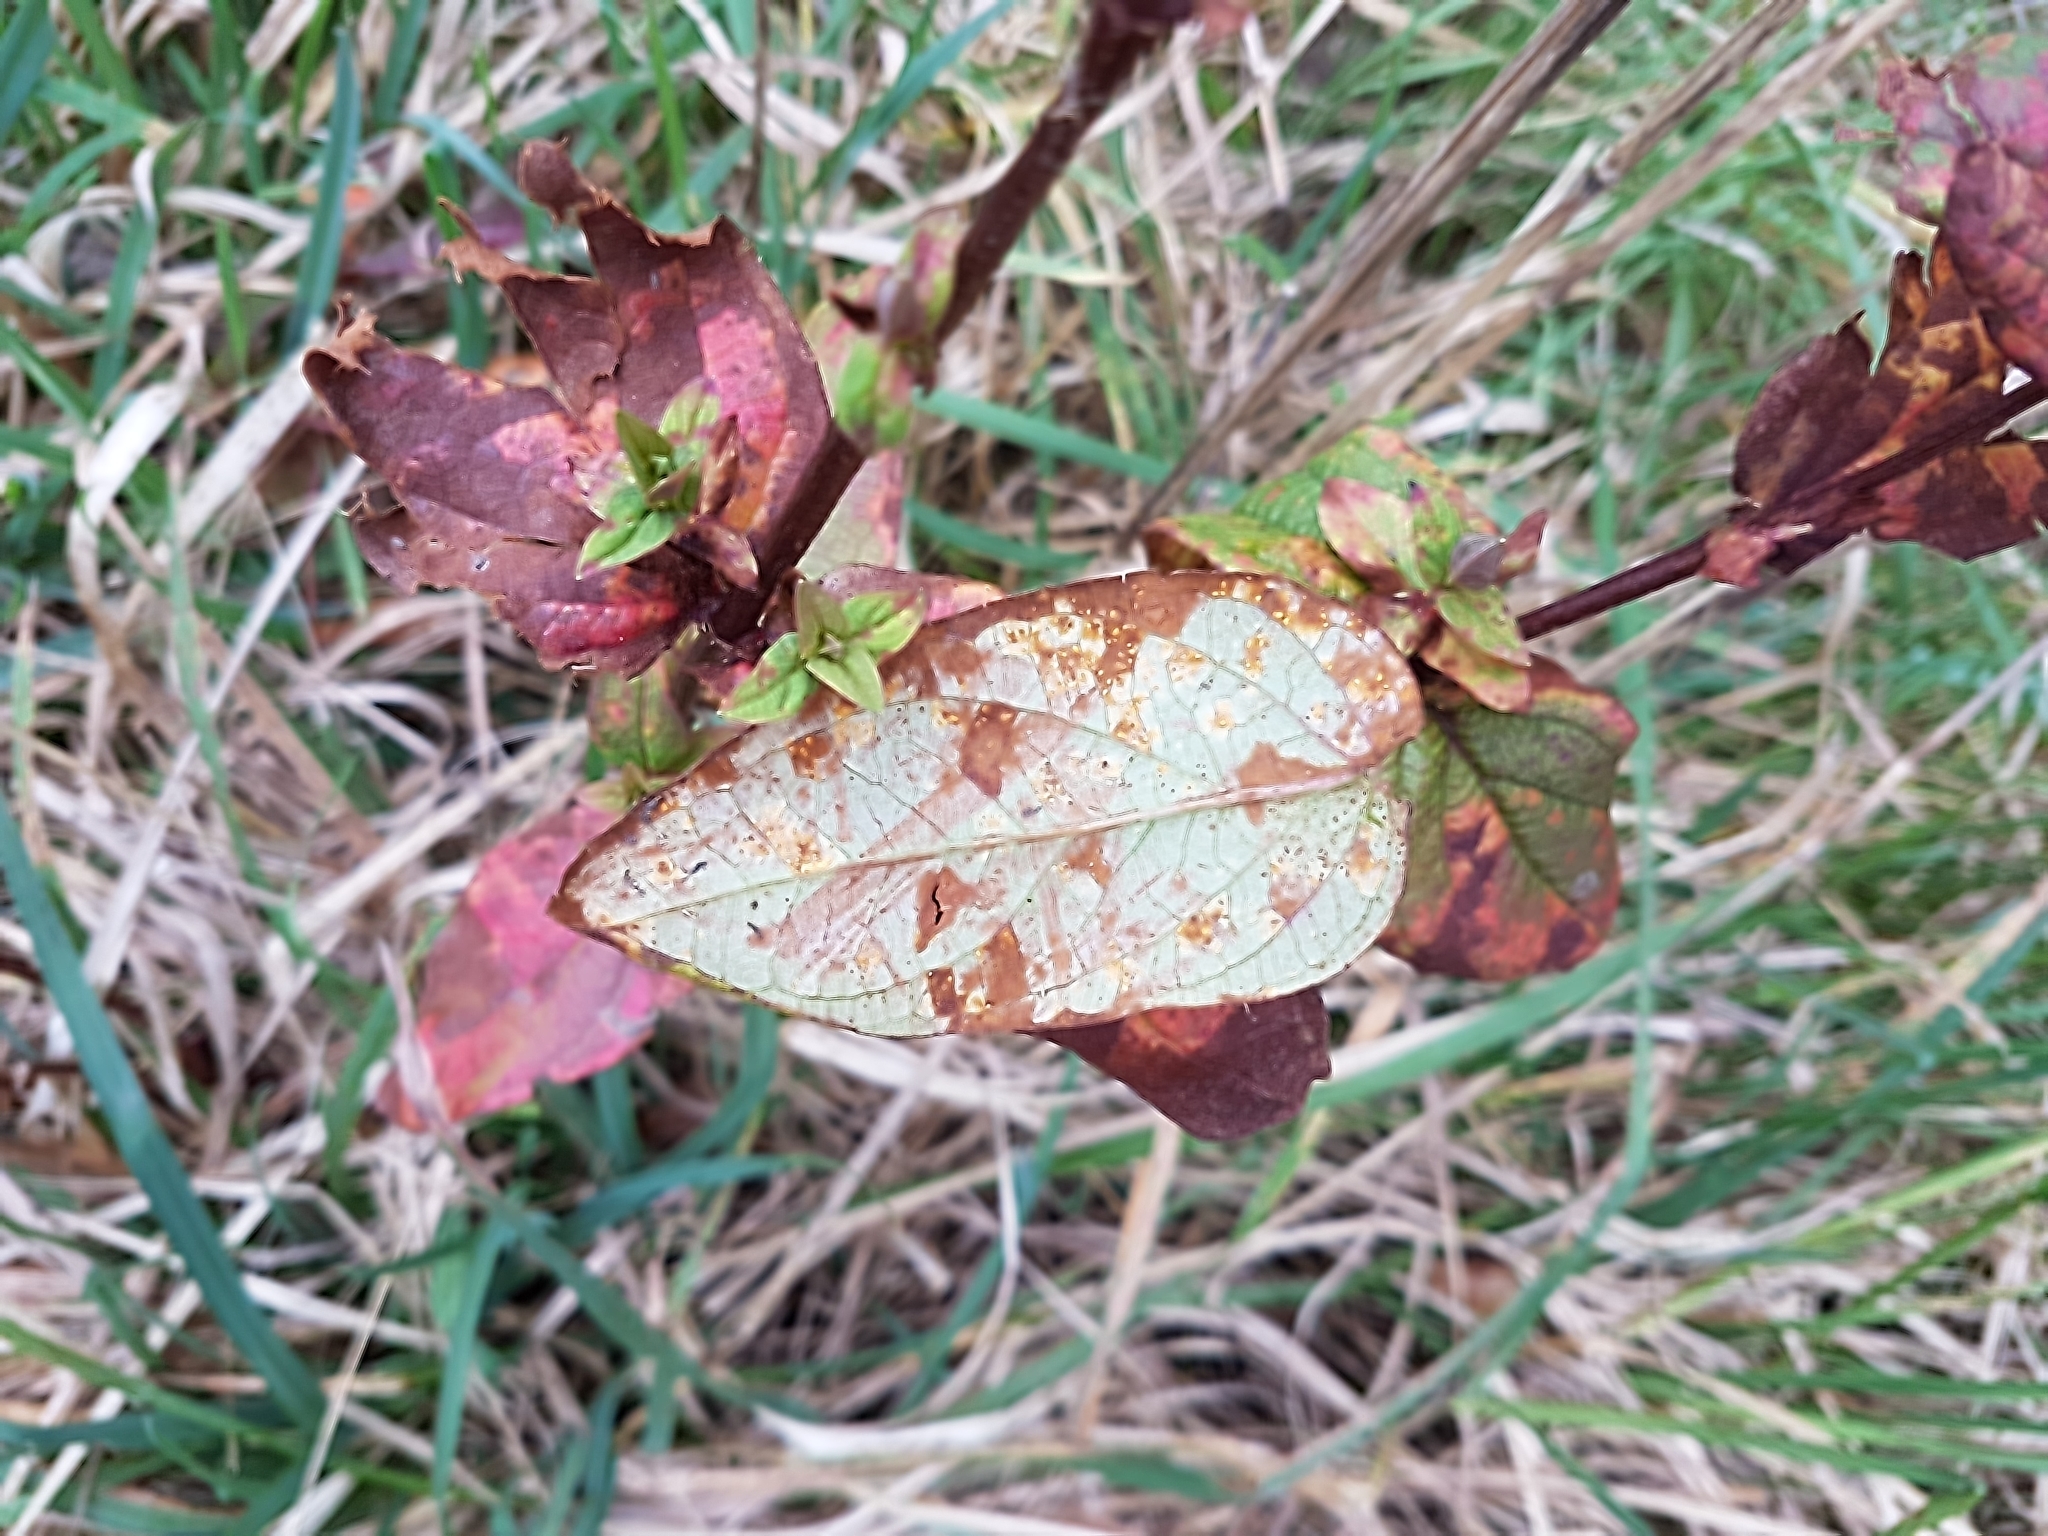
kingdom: Fungi
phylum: Basidiomycota
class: Pucciniomycetes
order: Pucciniales
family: Melampsoraceae
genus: Melampsora
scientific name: Melampsora hypericorum
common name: Tutsan rust
